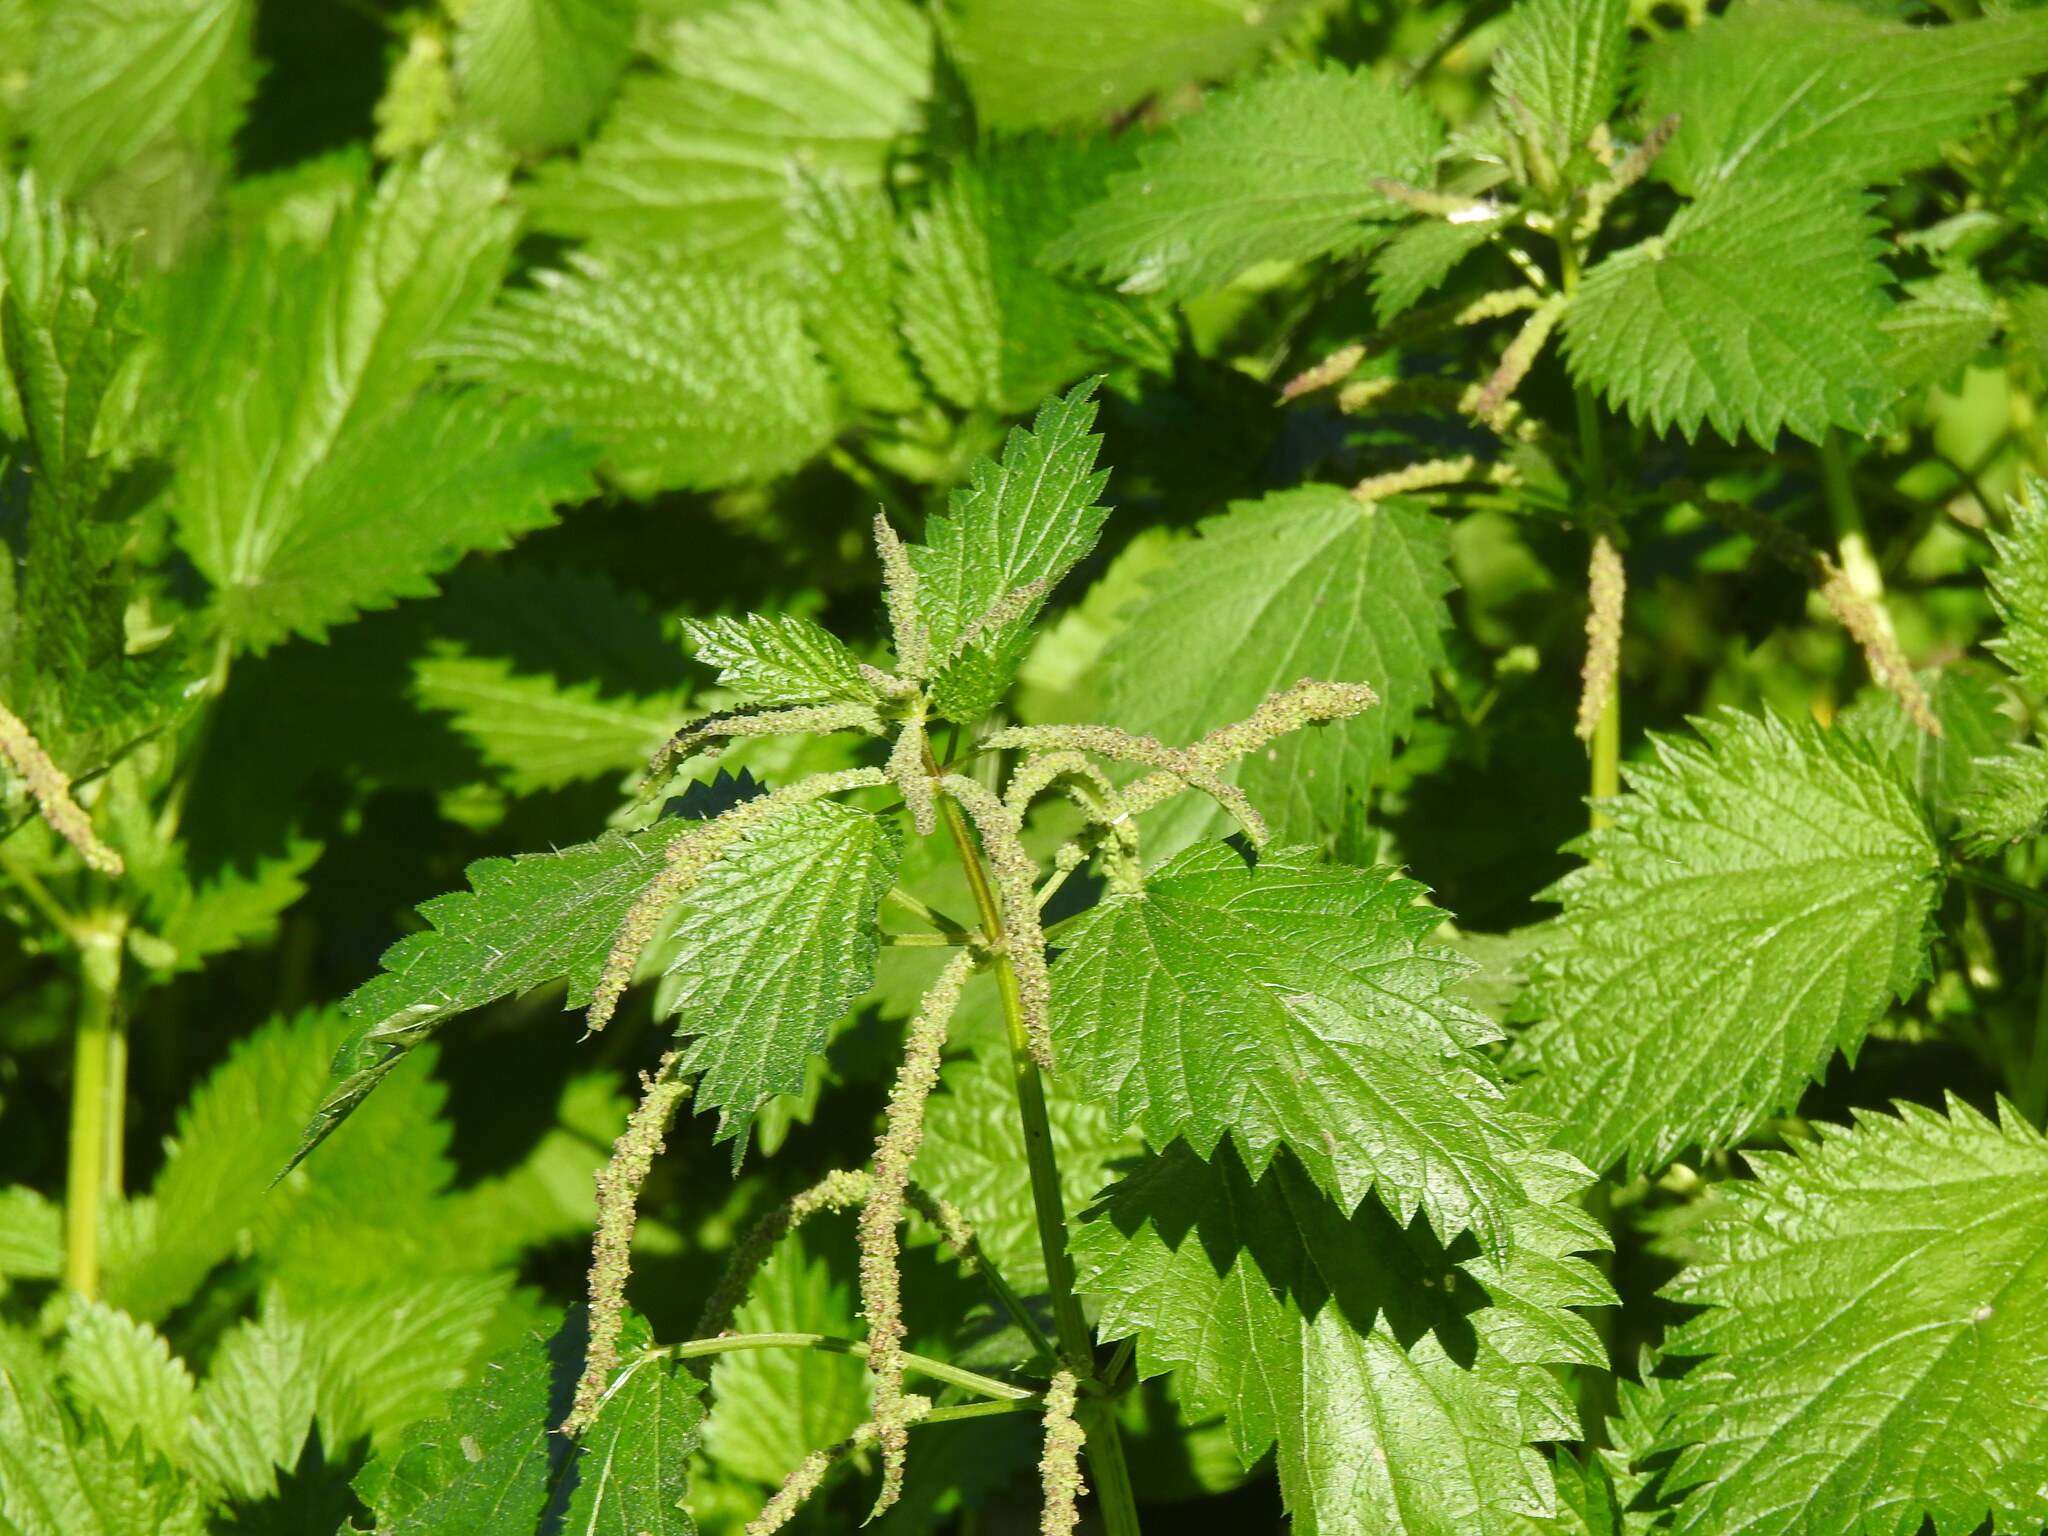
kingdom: Plantae
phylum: Tracheophyta
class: Magnoliopsida
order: Rosales
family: Urticaceae
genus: Urtica
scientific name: Urtica membranacea
